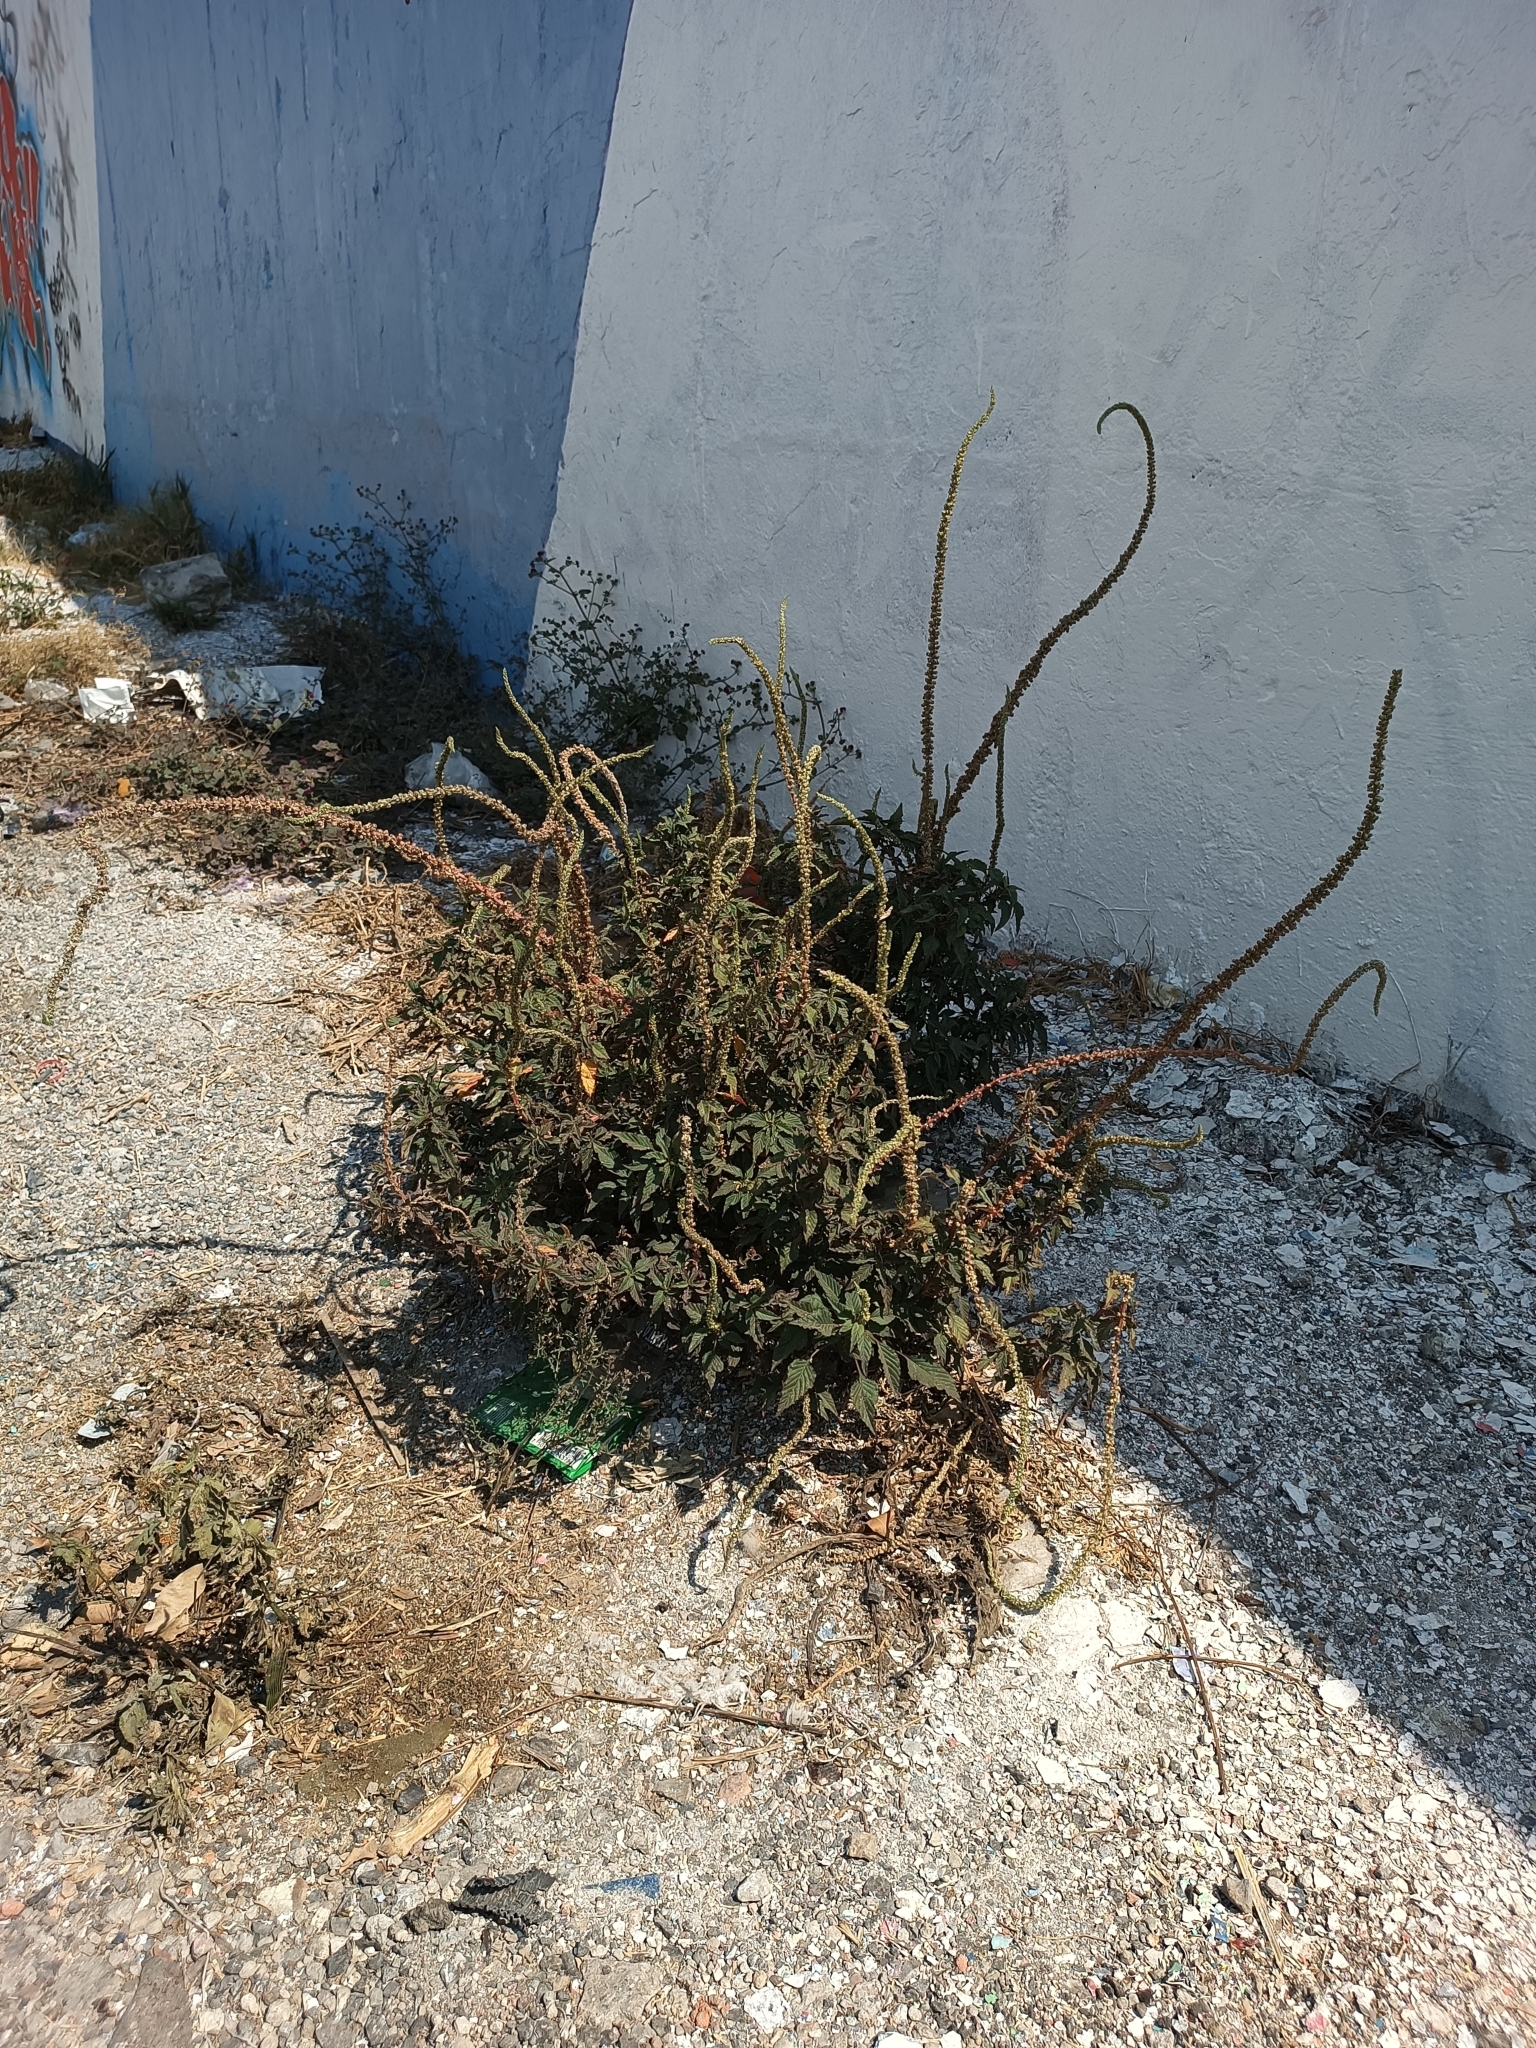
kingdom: Plantae
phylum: Tracheophyta
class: Magnoliopsida
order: Caryophyllales
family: Amaranthaceae
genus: Amaranthus
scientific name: Amaranthus palmeri
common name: Dioecious amaranth
